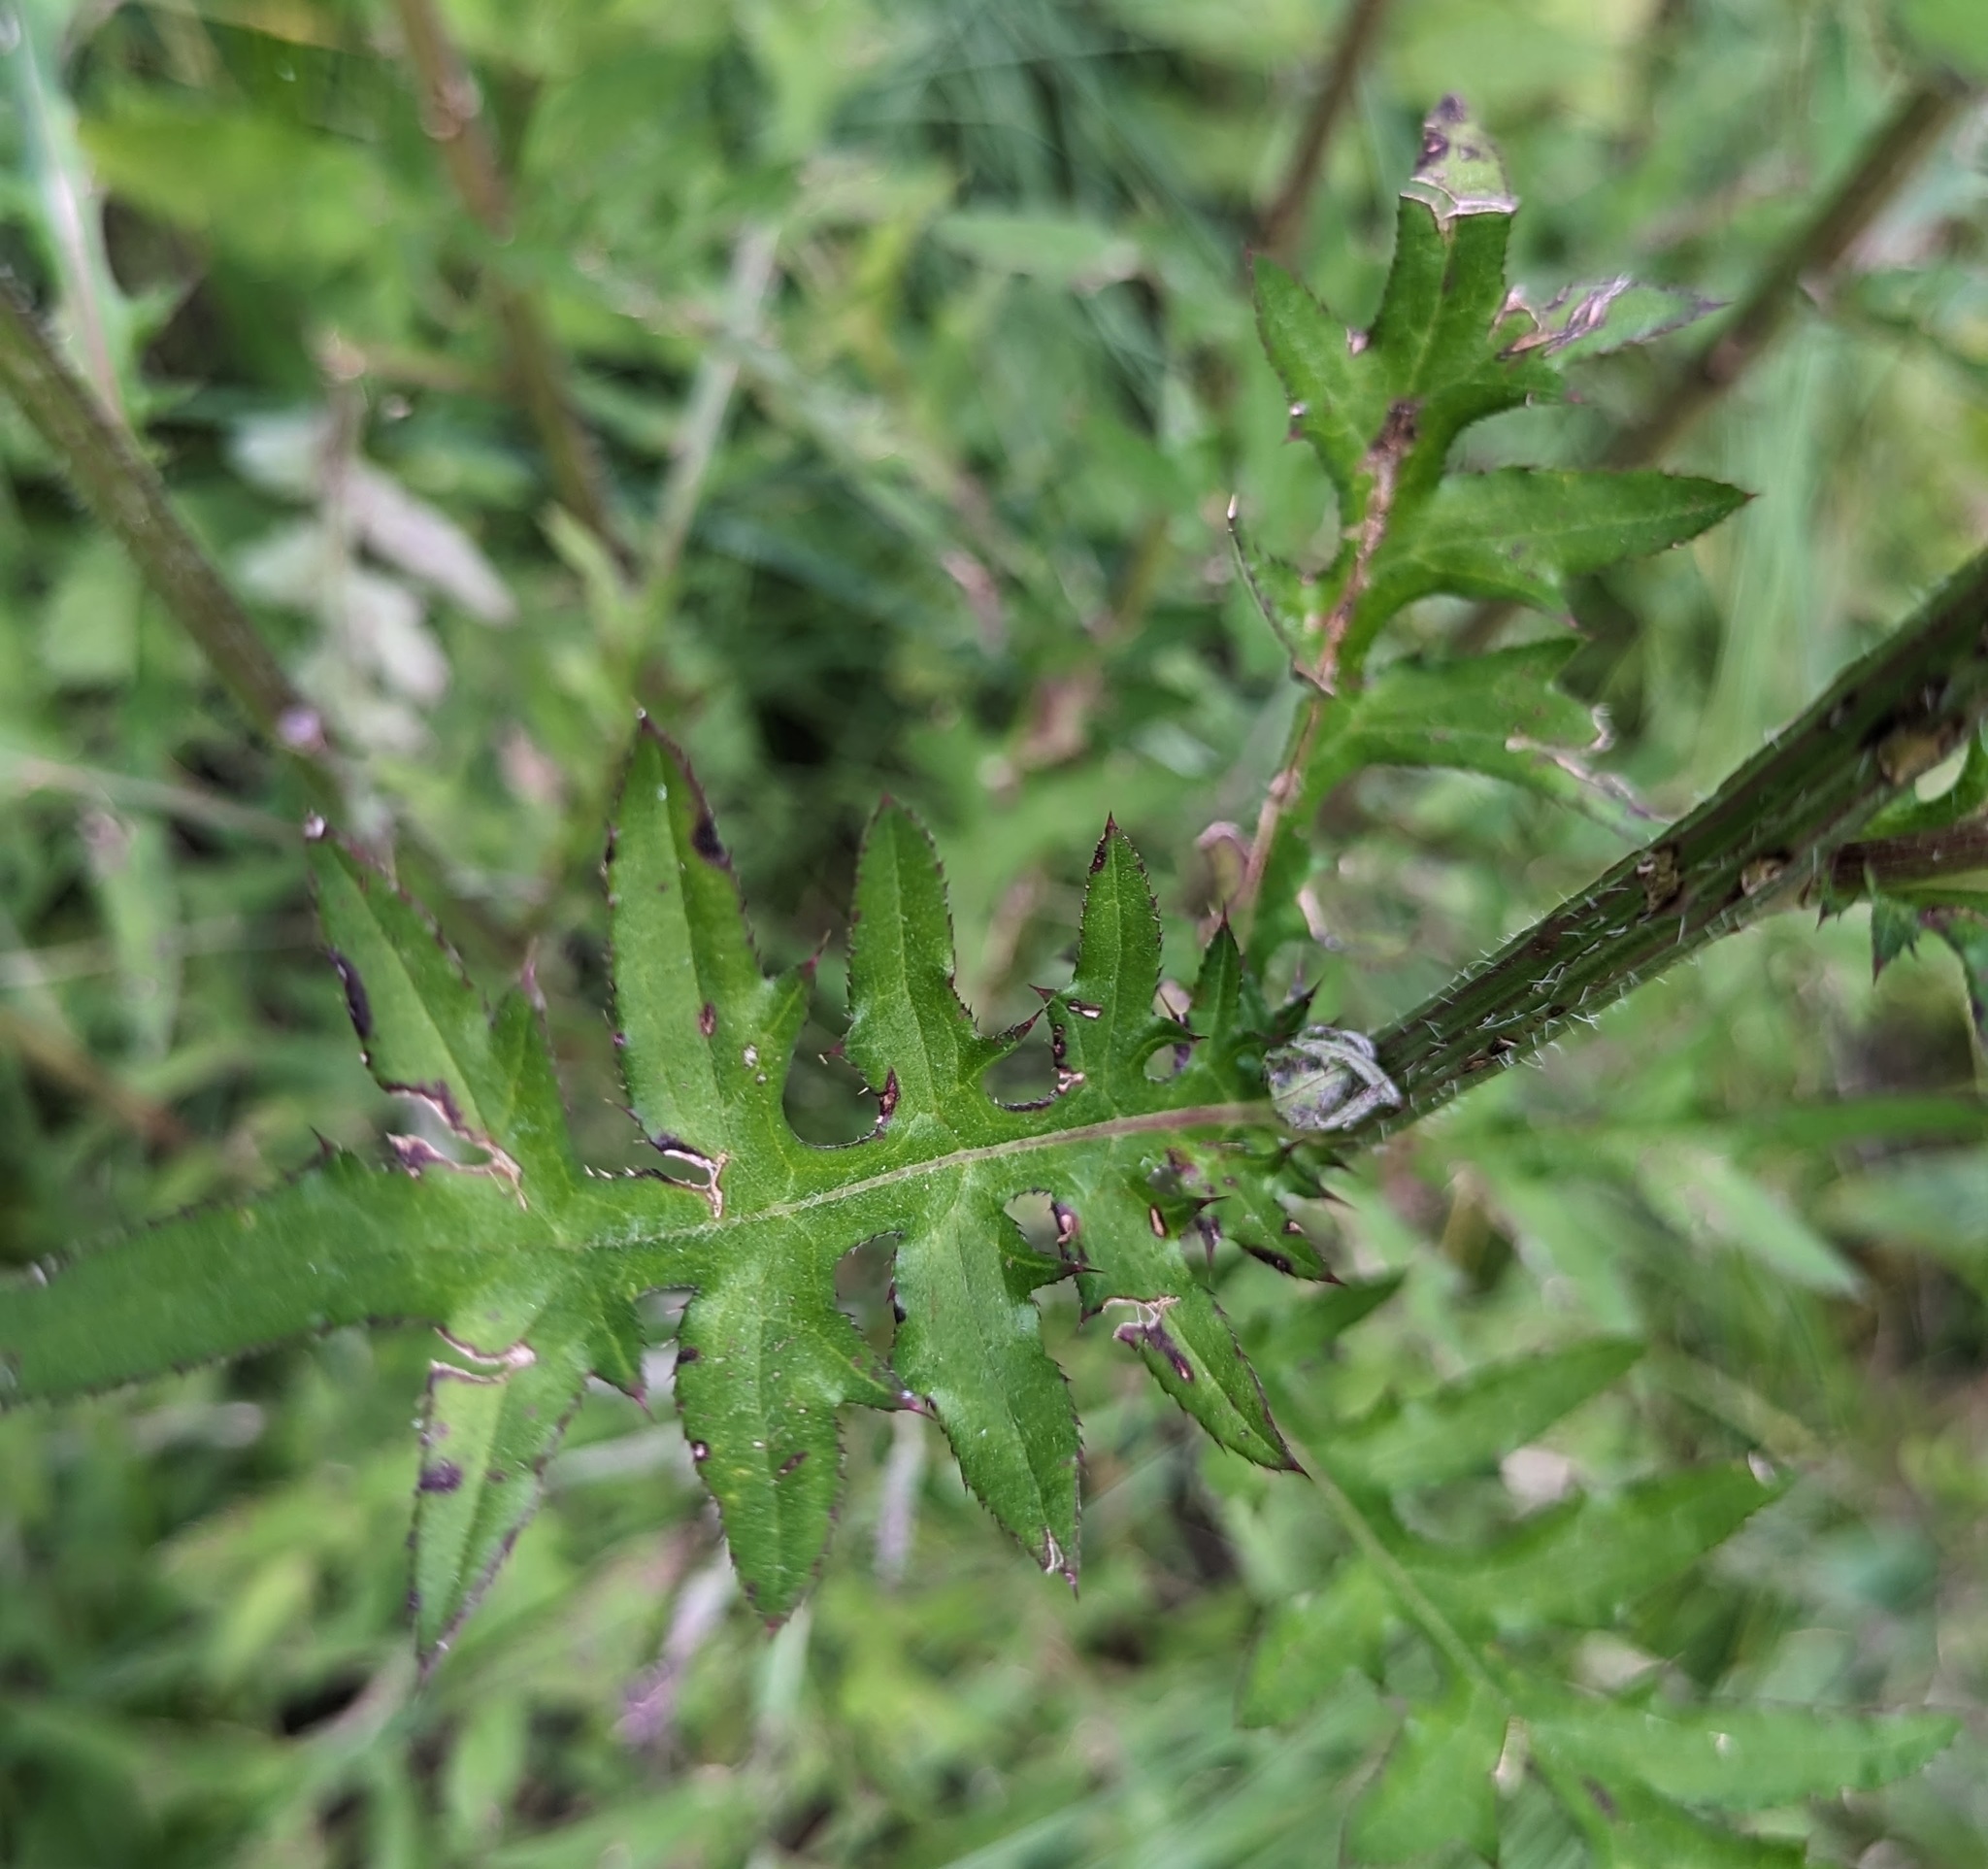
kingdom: Plantae
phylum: Tracheophyta
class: Magnoliopsida
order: Asterales
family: Asteraceae
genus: Cirsium
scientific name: Cirsium muticum
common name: Dunce-nettle
